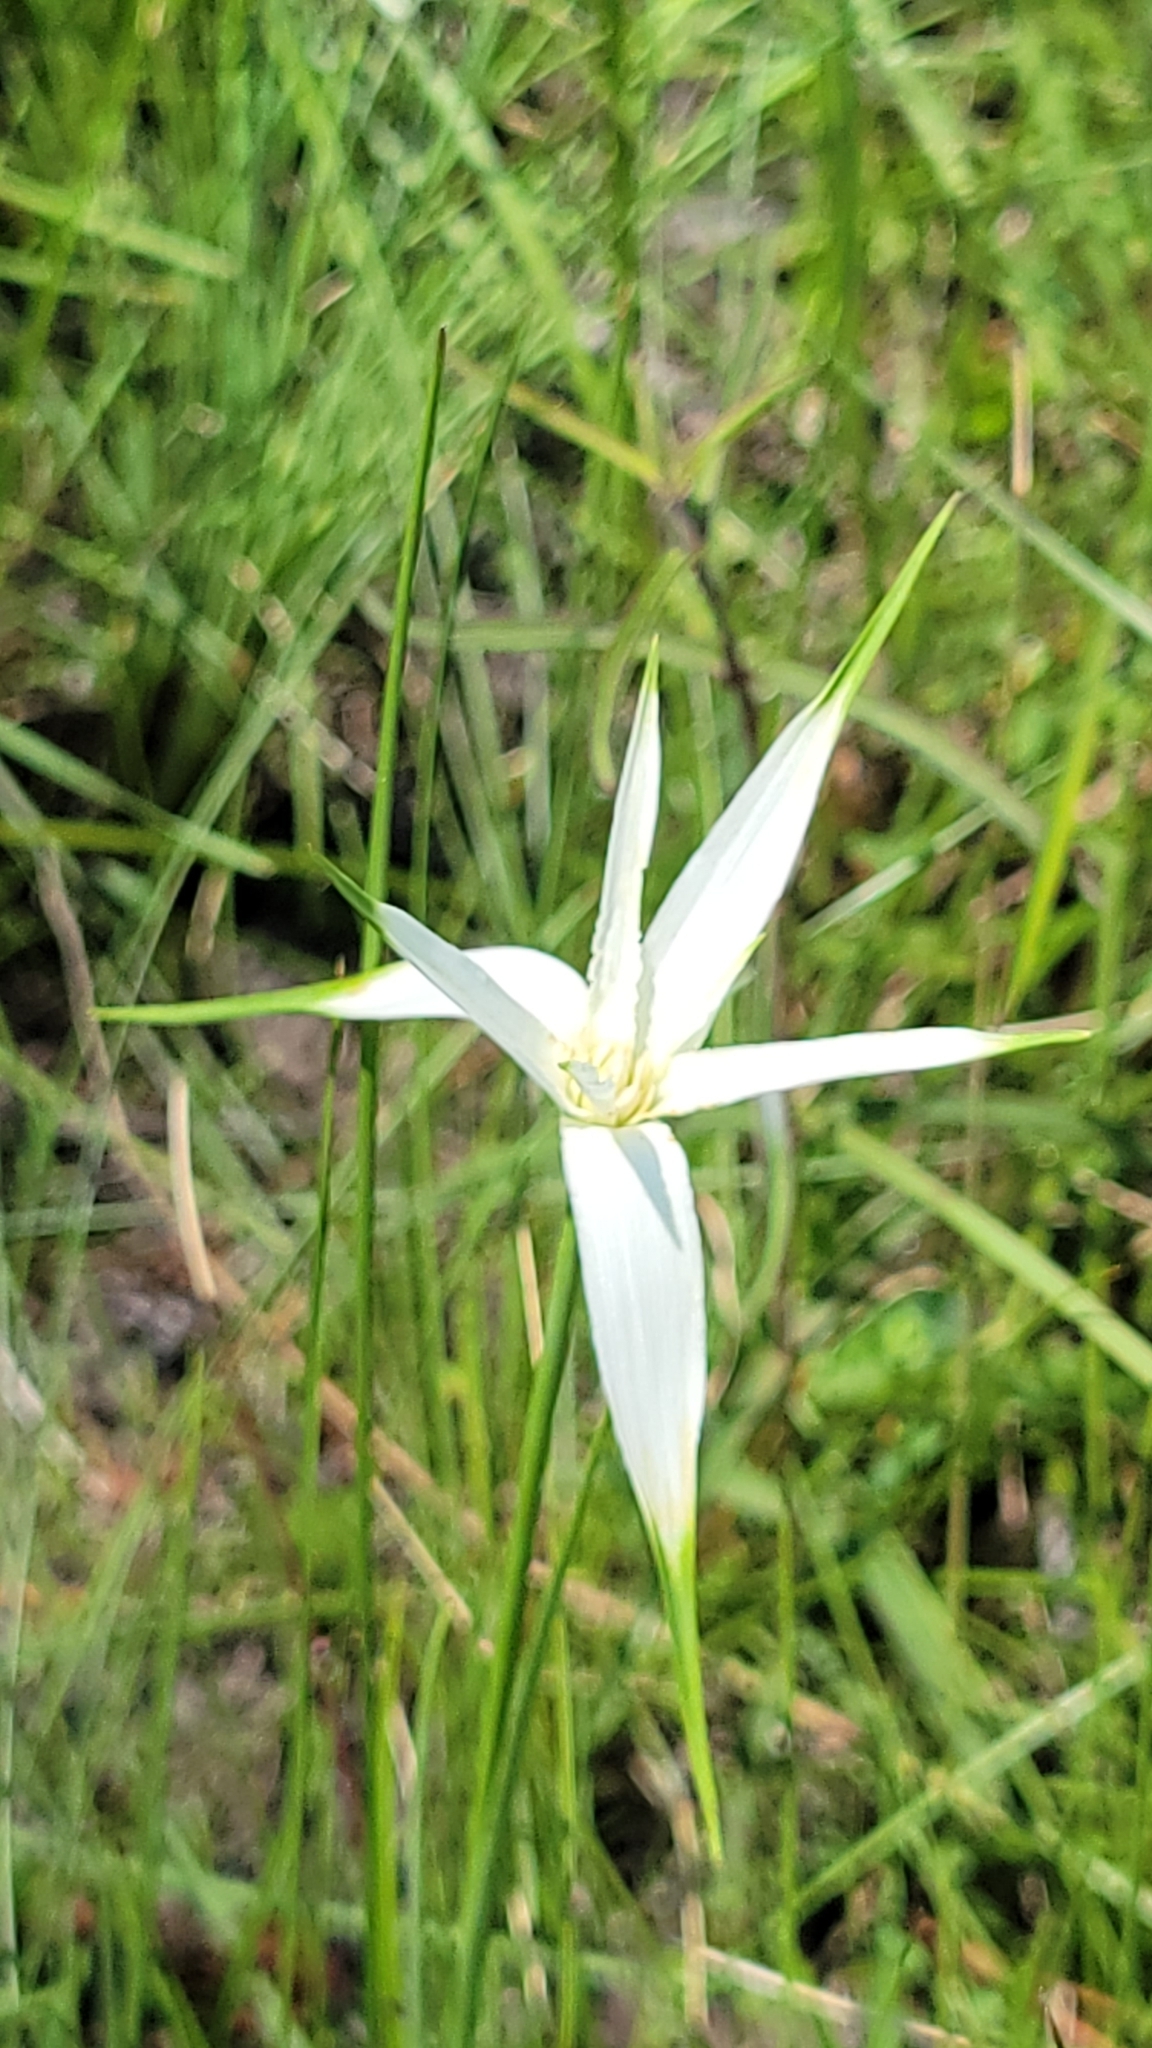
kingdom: Plantae
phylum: Tracheophyta
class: Liliopsida
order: Poales
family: Cyperaceae
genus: Rhynchospora
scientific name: Rhynchospora latifolia
